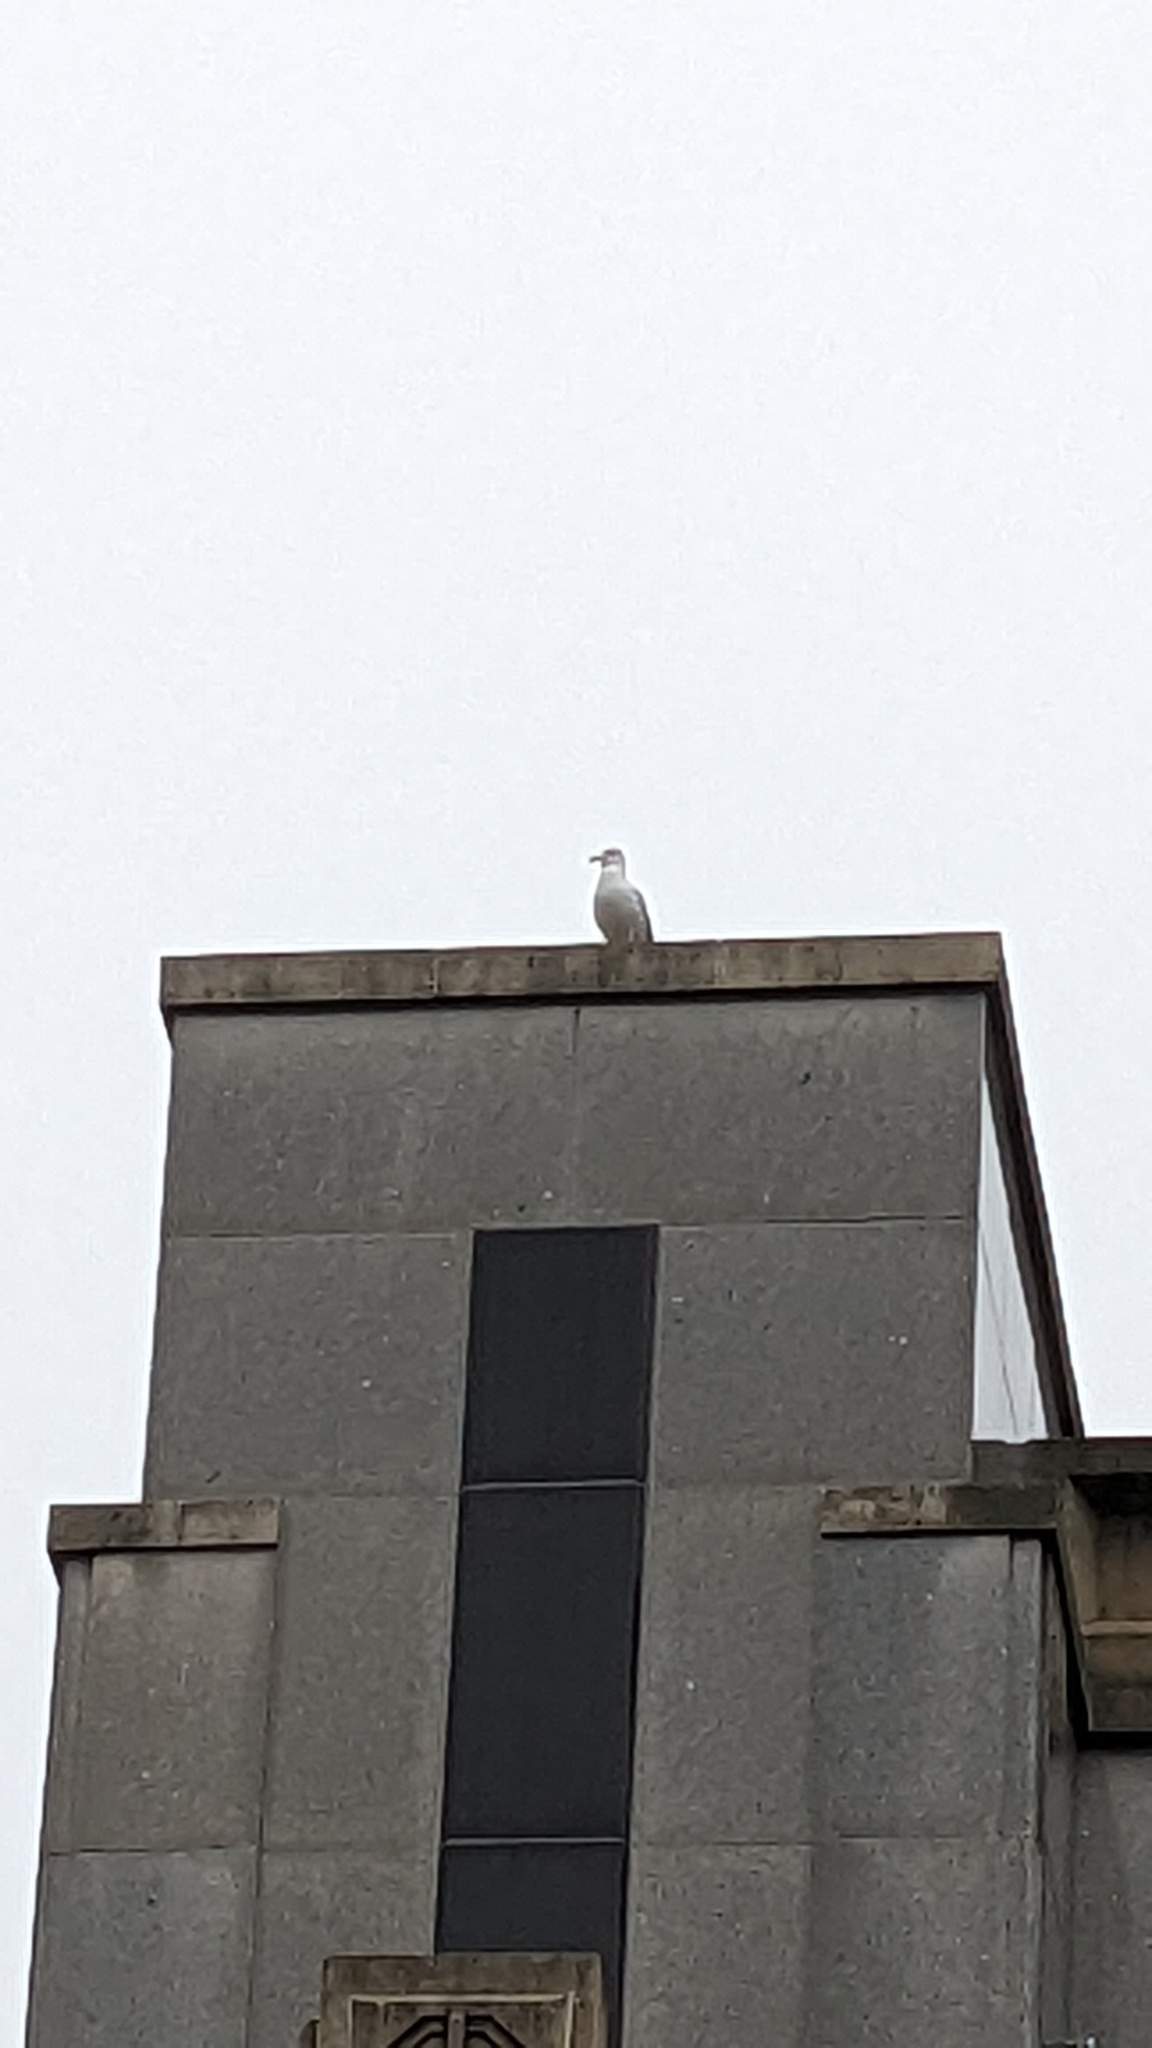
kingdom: Animalia
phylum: Chordata
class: Aves
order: Charadriiformes
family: Laridae
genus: Larus
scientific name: Larus
